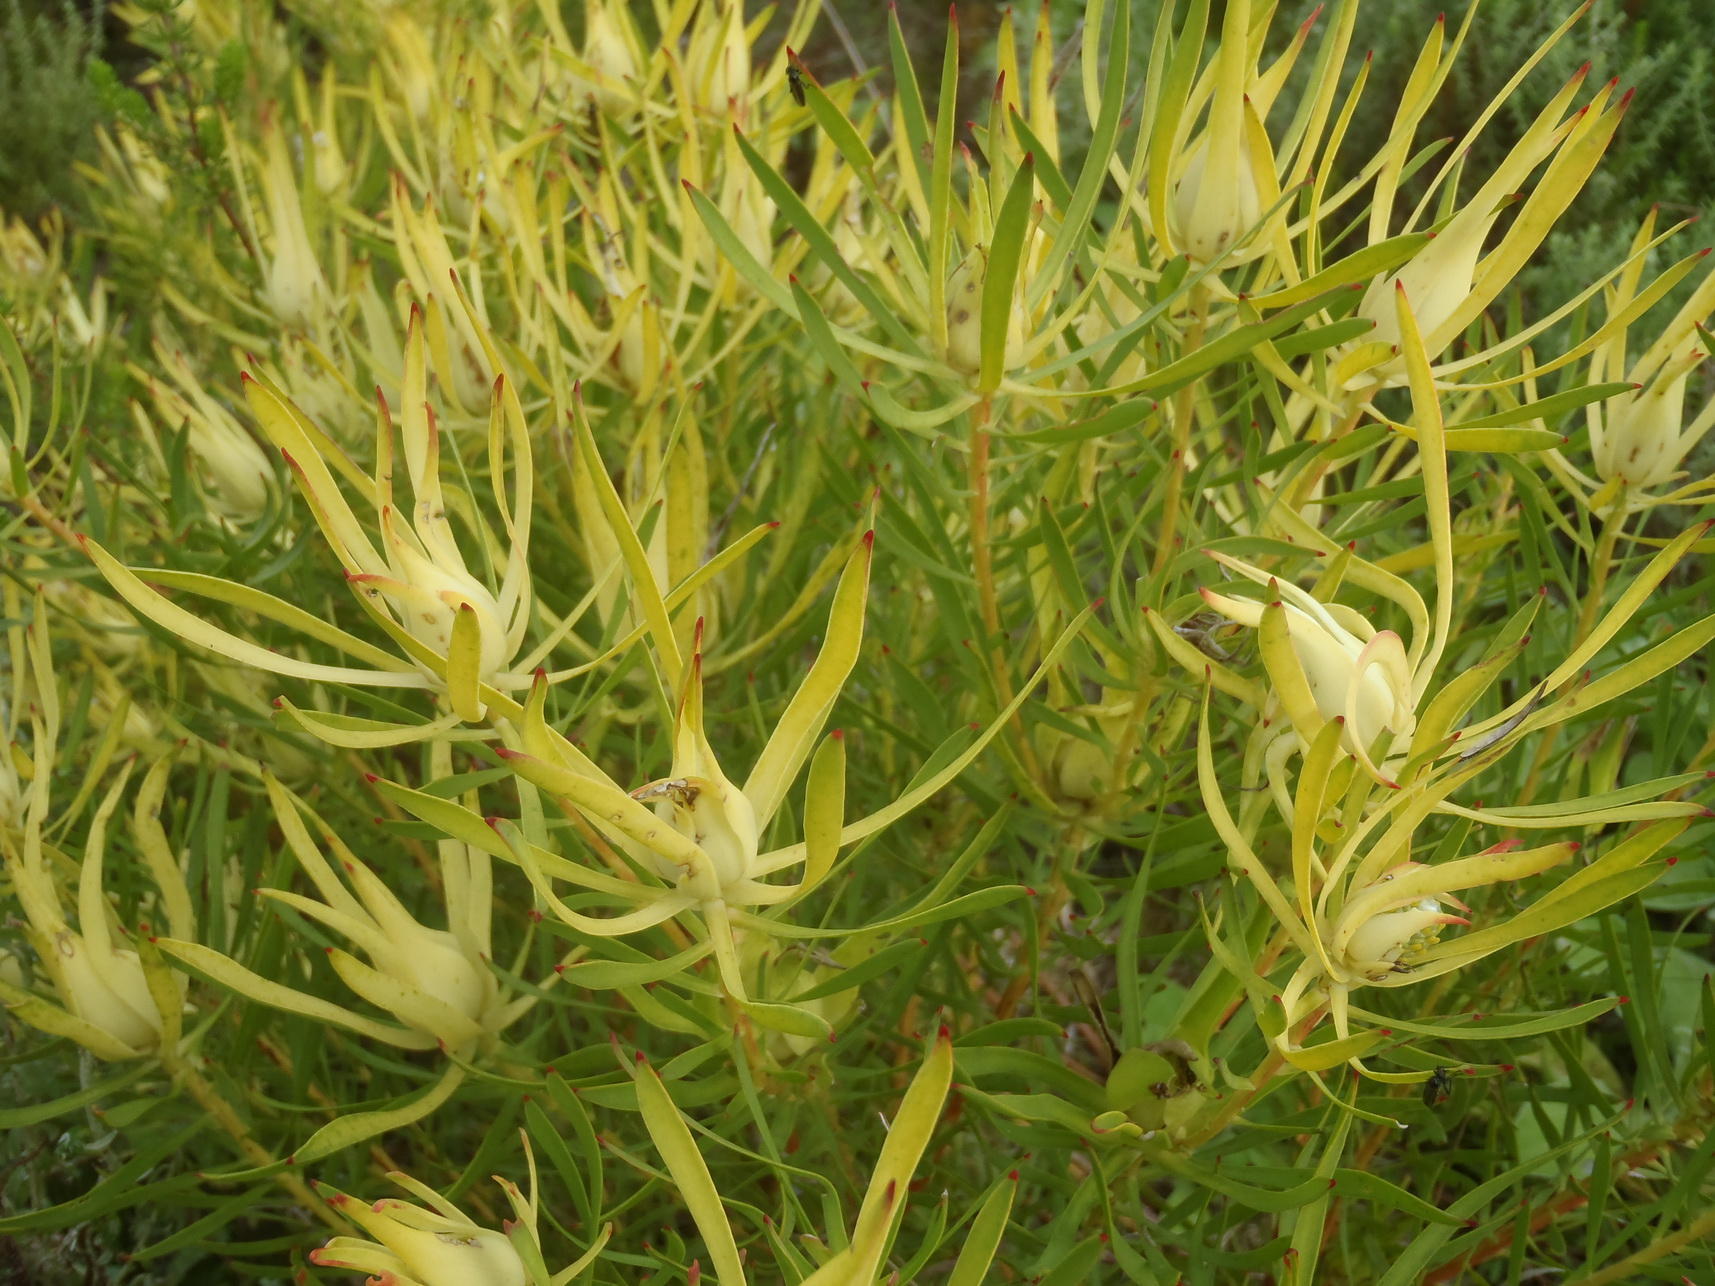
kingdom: Plantae
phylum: Tracheophyta
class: Magnoliopsida
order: Proteales
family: Proteaceae
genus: Leucadendron
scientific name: Leucadendron salignum
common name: Common sunshine conebush
